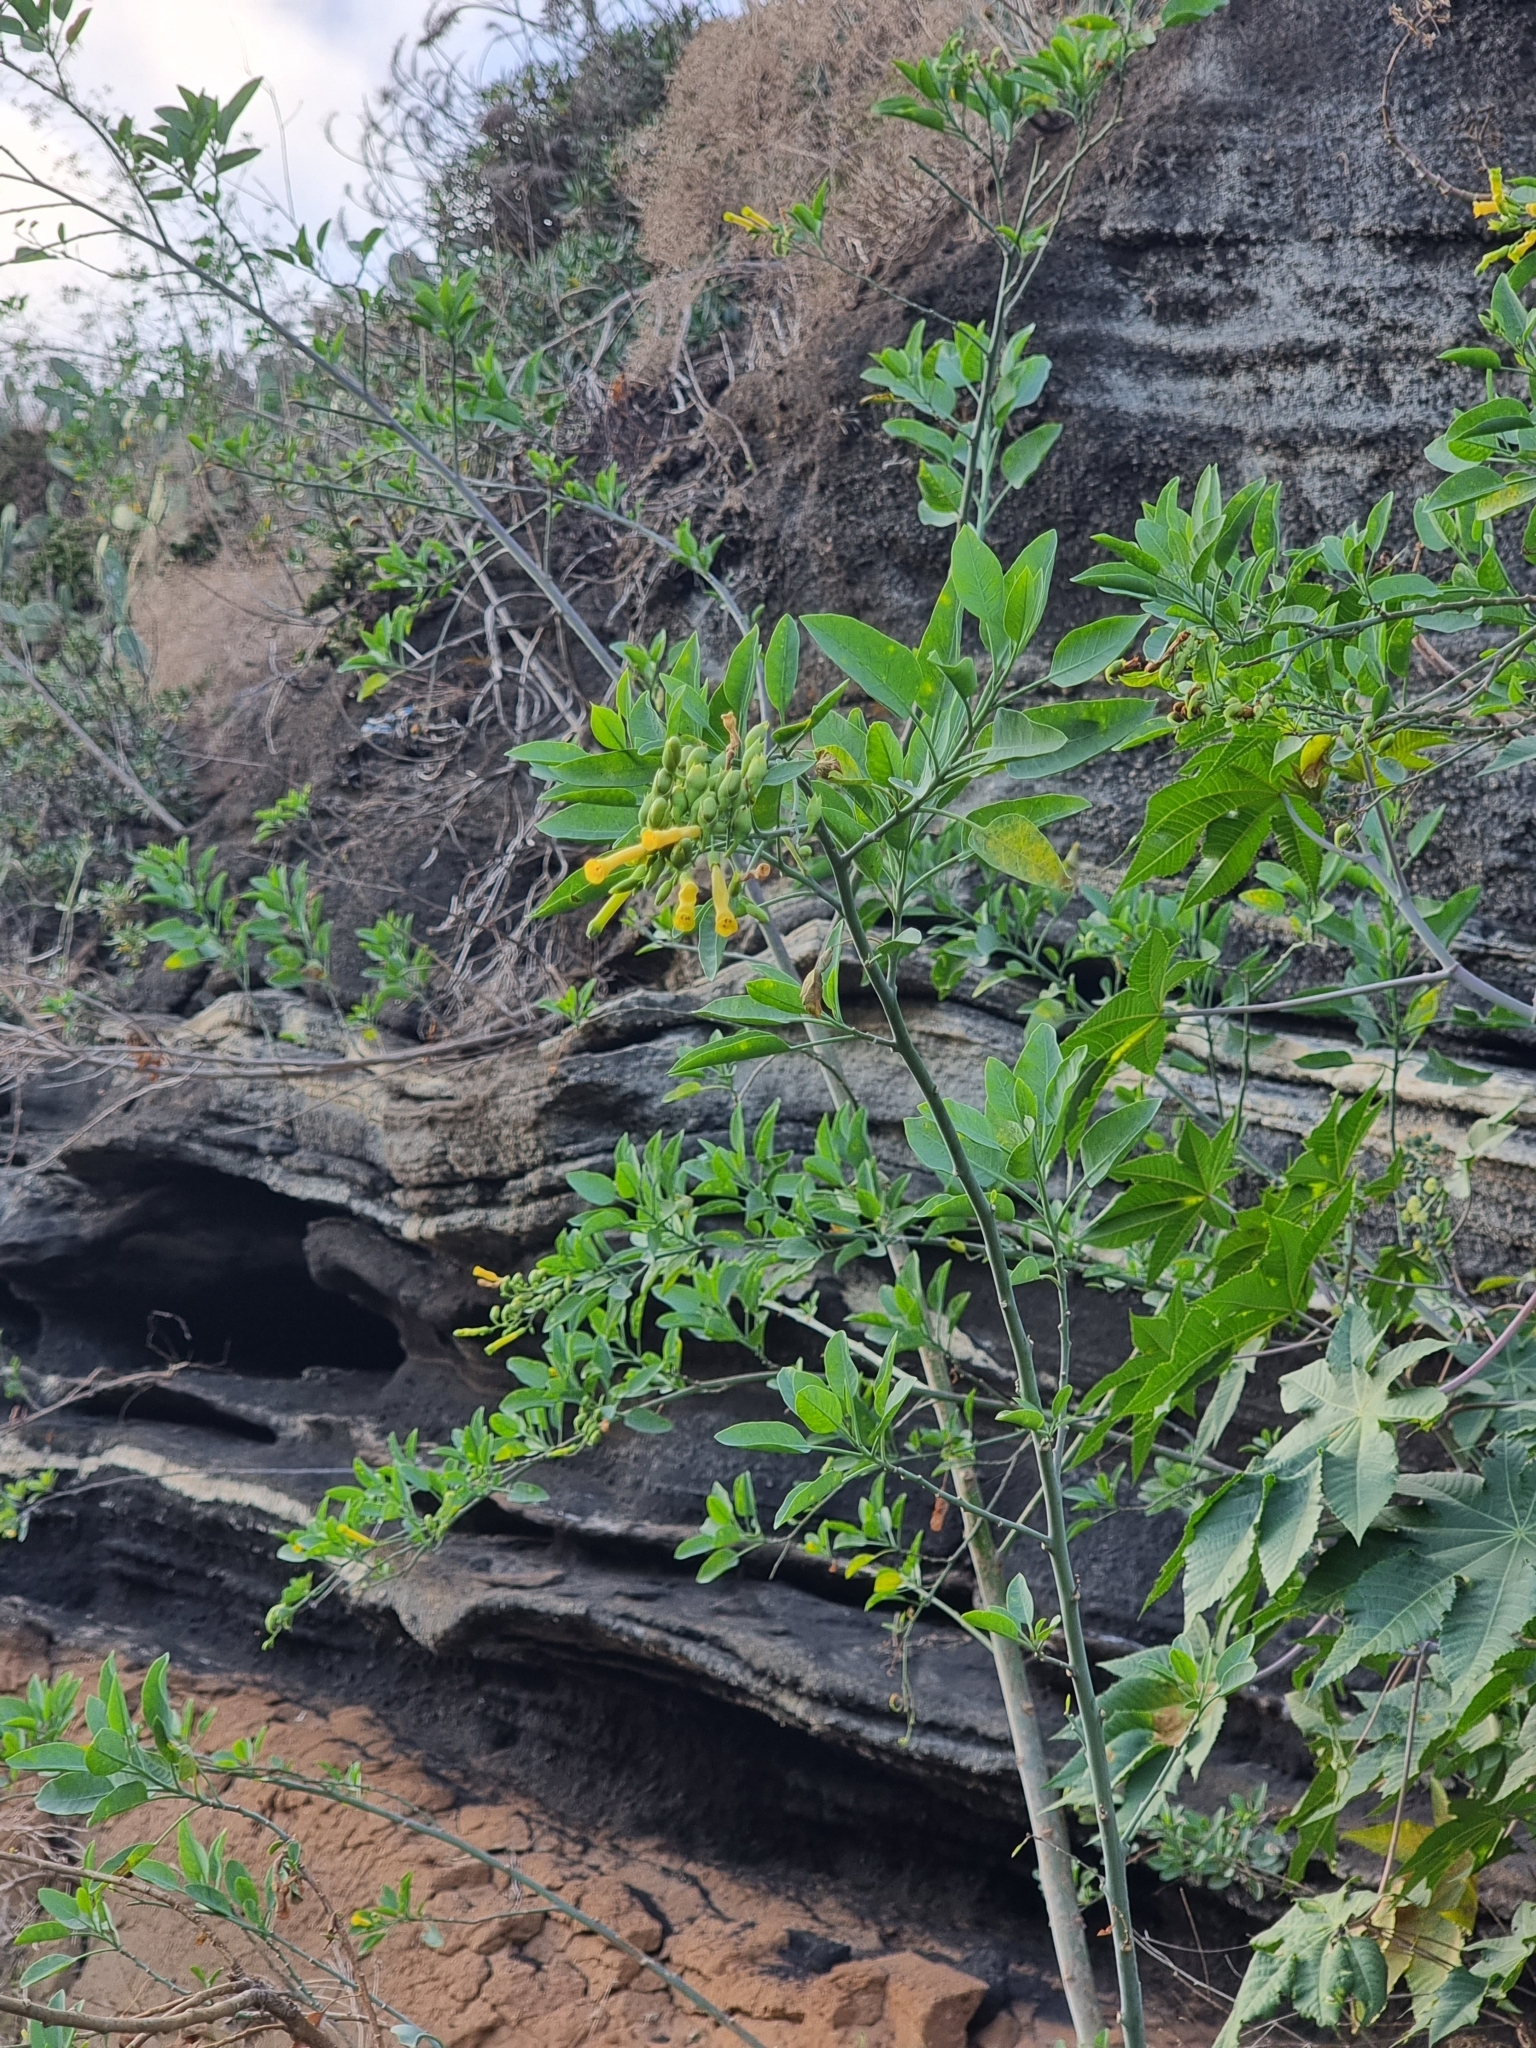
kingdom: Plantae
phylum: Tracheophyta
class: Magnoliopsida
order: Solanales
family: Solanaceae
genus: Nicotiana
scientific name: Nicotiana glauca
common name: Tree tobacco
